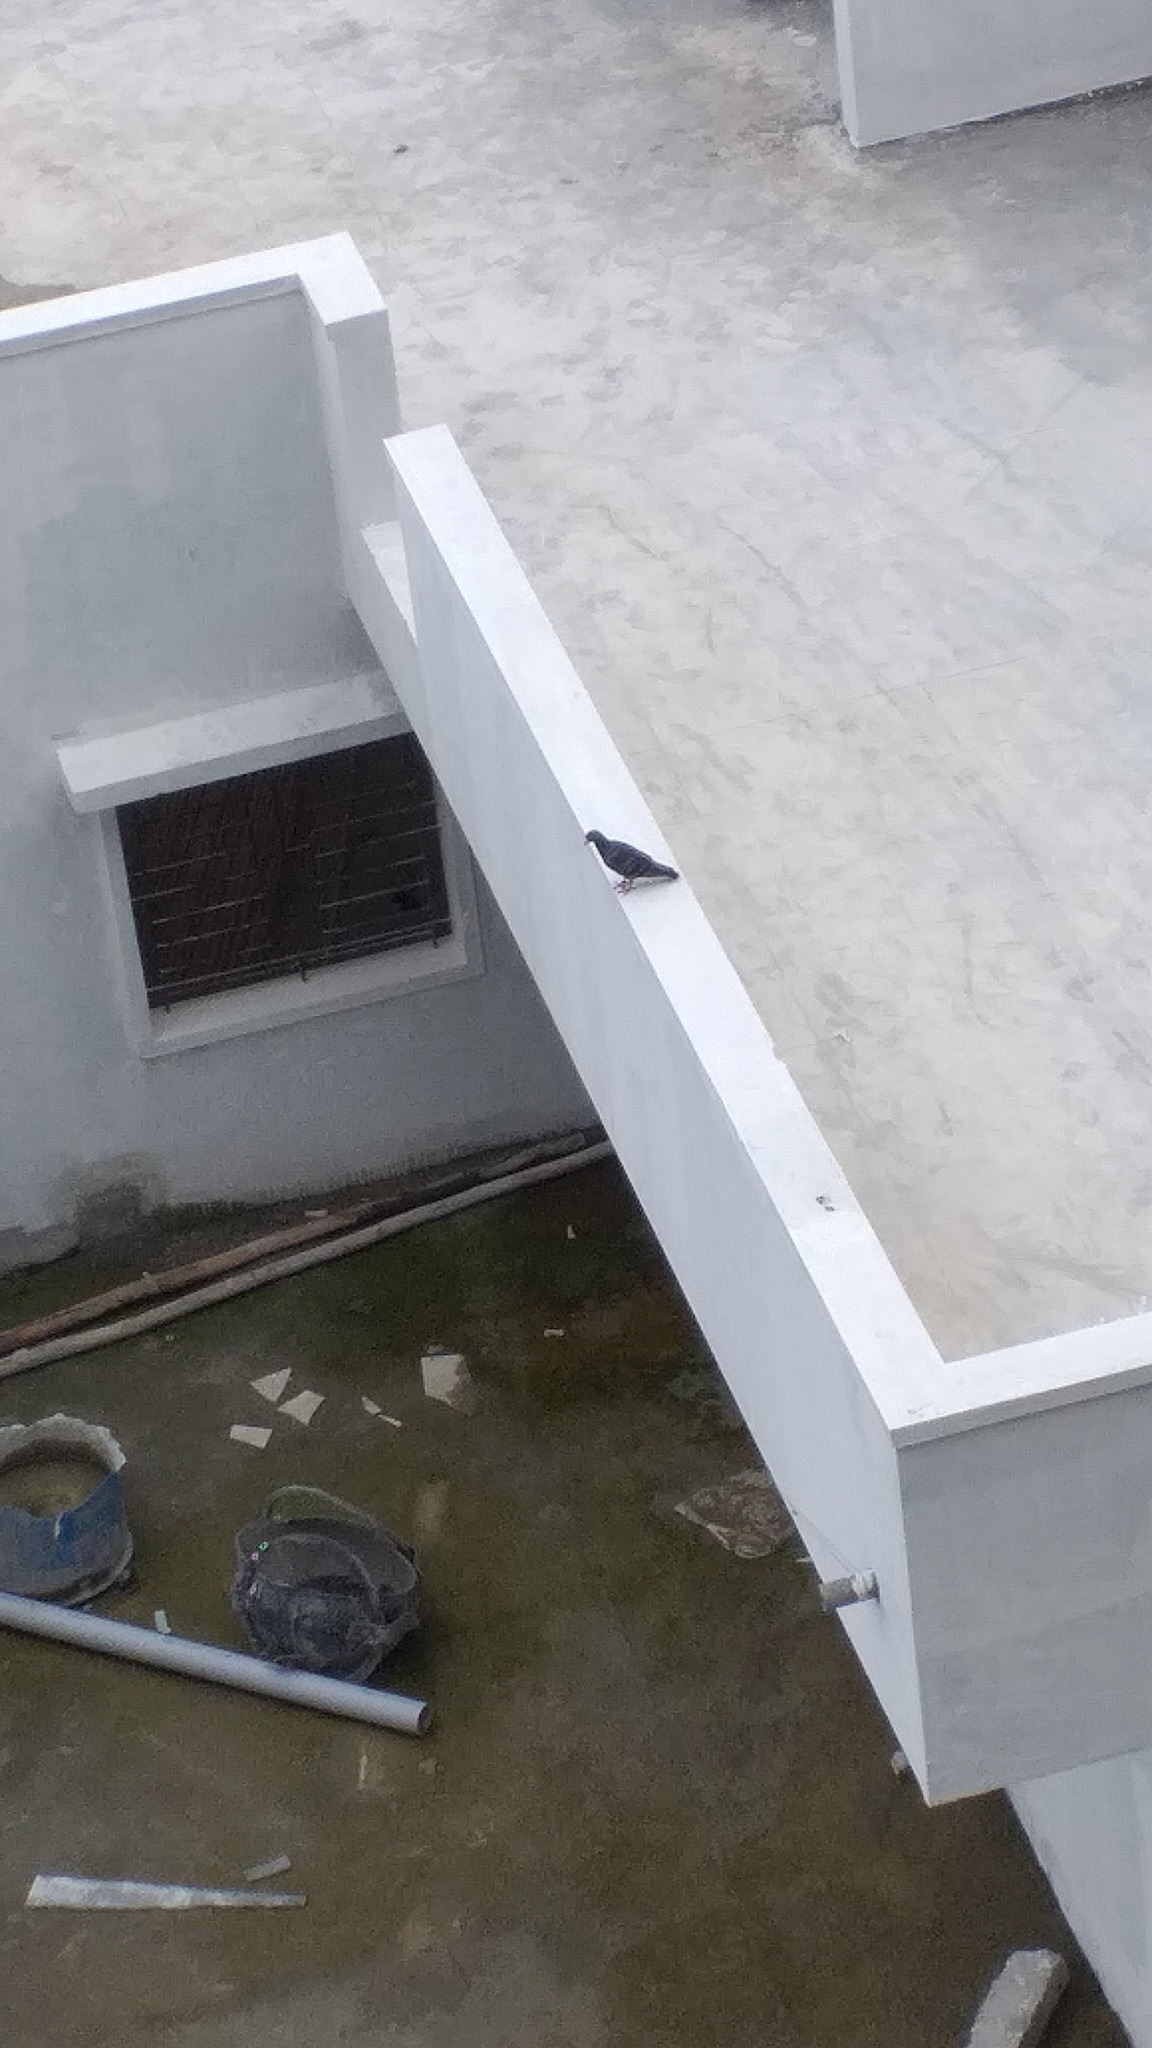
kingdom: Animalia
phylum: Chordata
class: Aves
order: Columbiformes
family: Columbidae
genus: Columba
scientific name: Columba livia
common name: Rock pigeon
